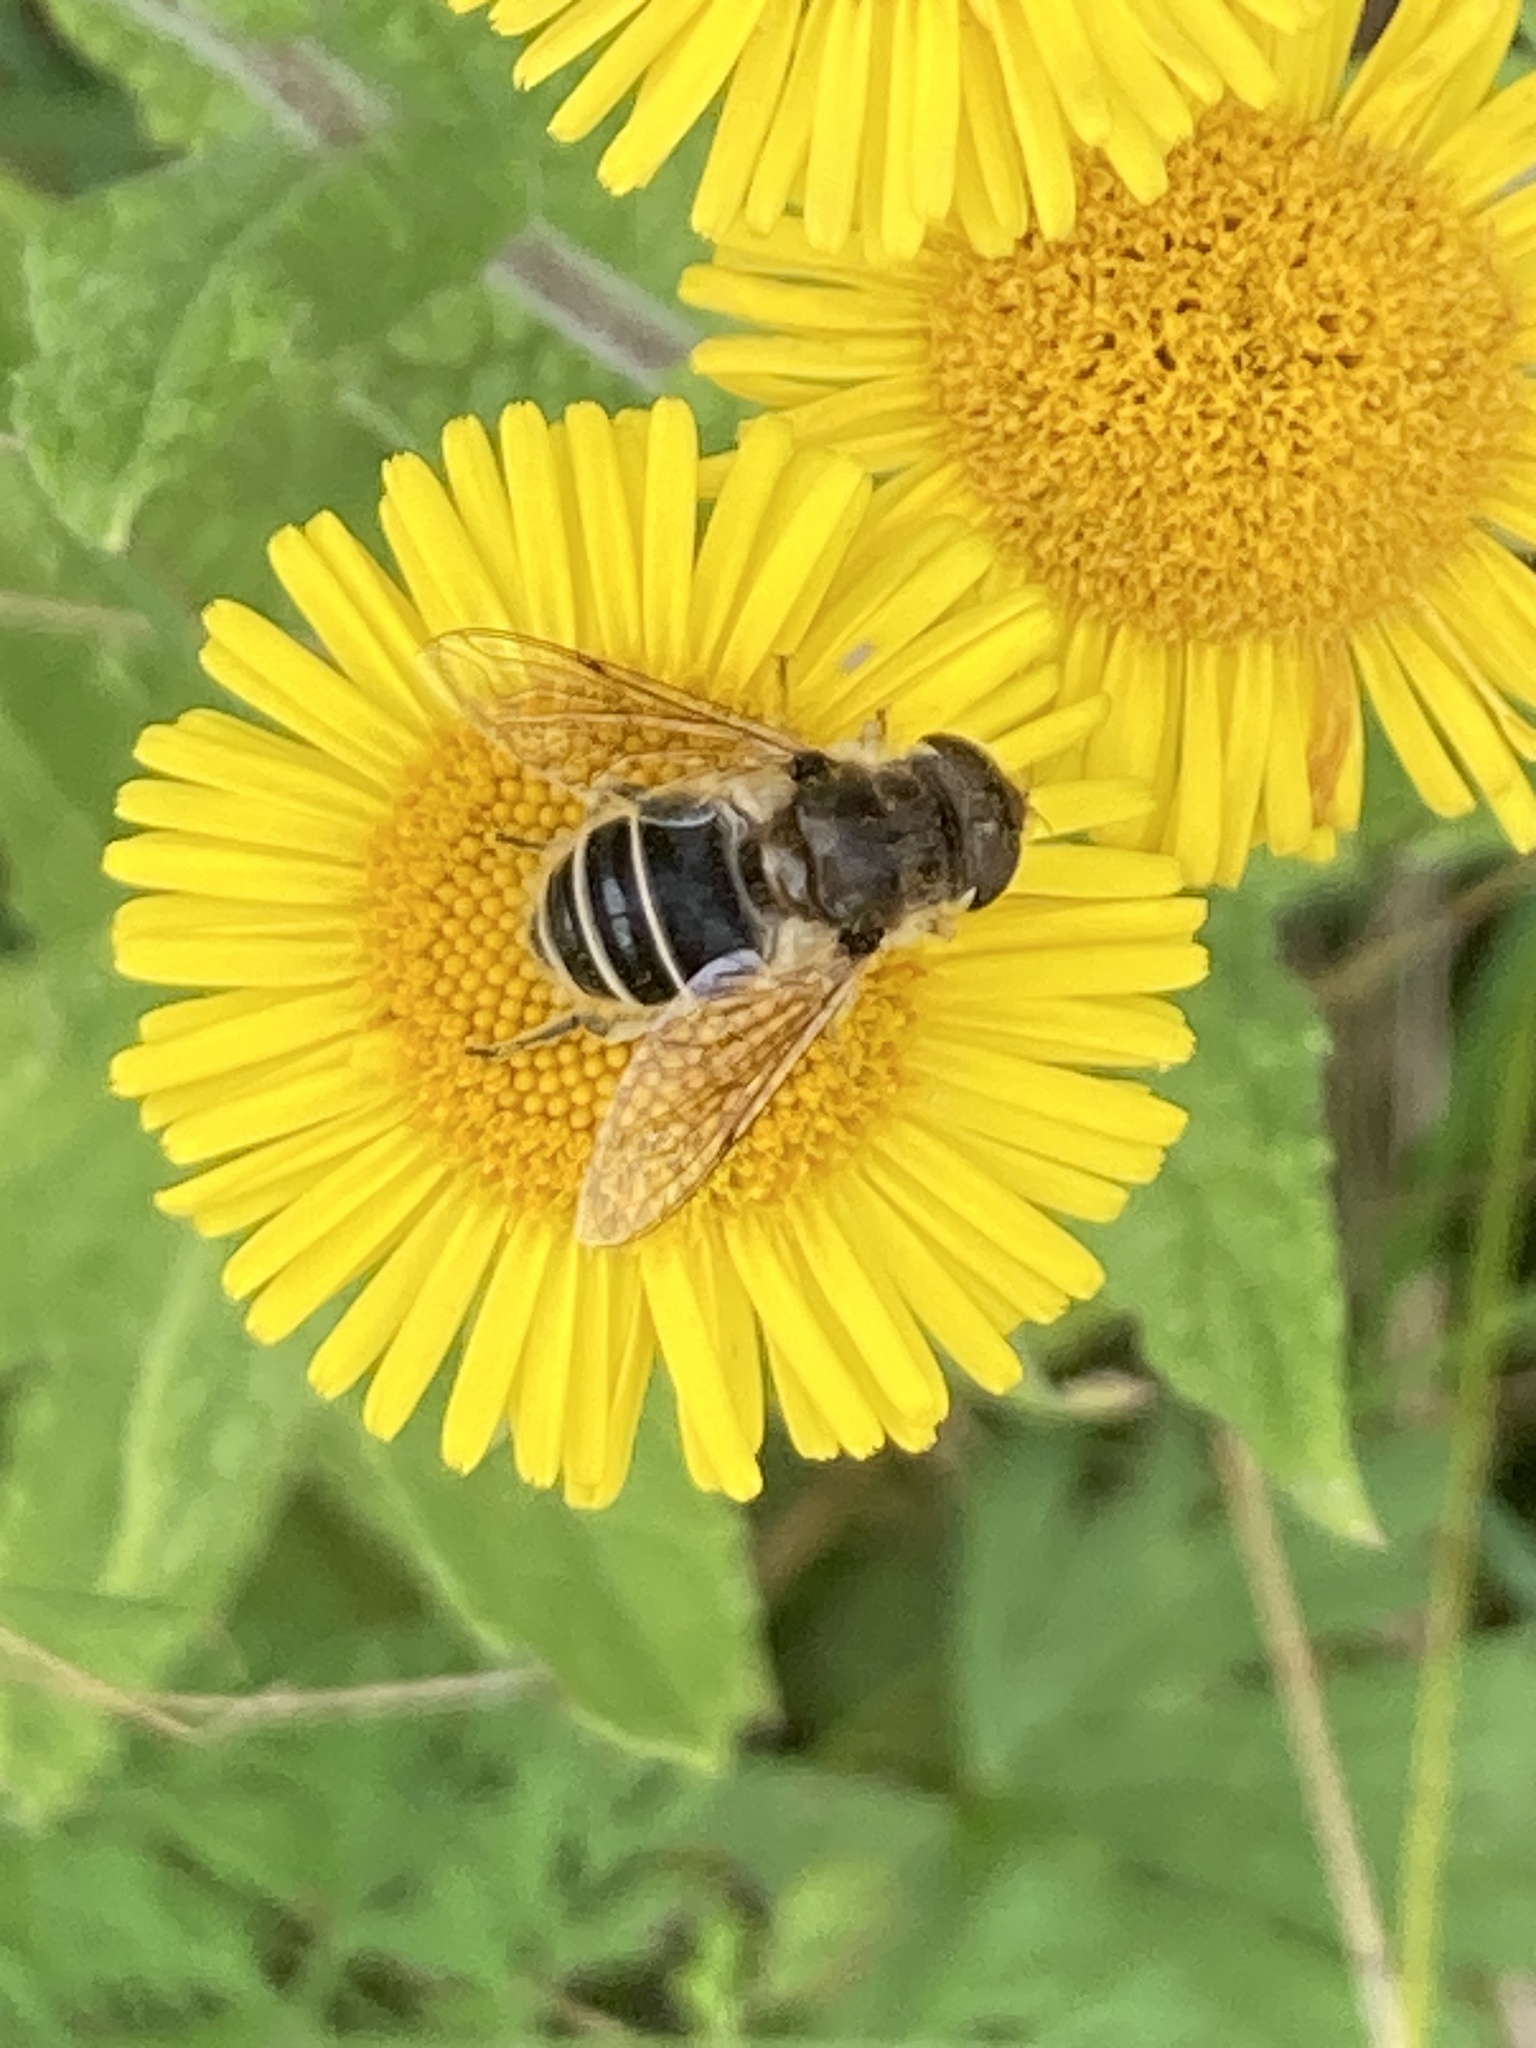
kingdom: Animalia
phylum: Arthropoda
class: Insecta
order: Diptera
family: Syrphidae
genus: Eoseristalis
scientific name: Eoseristalis
